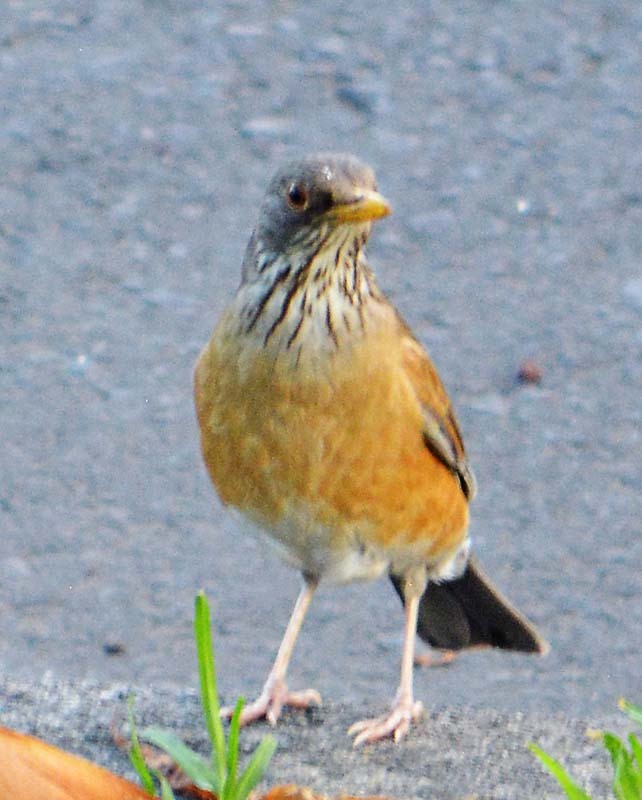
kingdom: Animalia
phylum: Chordata
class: Aves
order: Passeriformes
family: Turdidae
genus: Turdus
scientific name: Turdus rufopalliatus
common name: Rufous-backed robin
